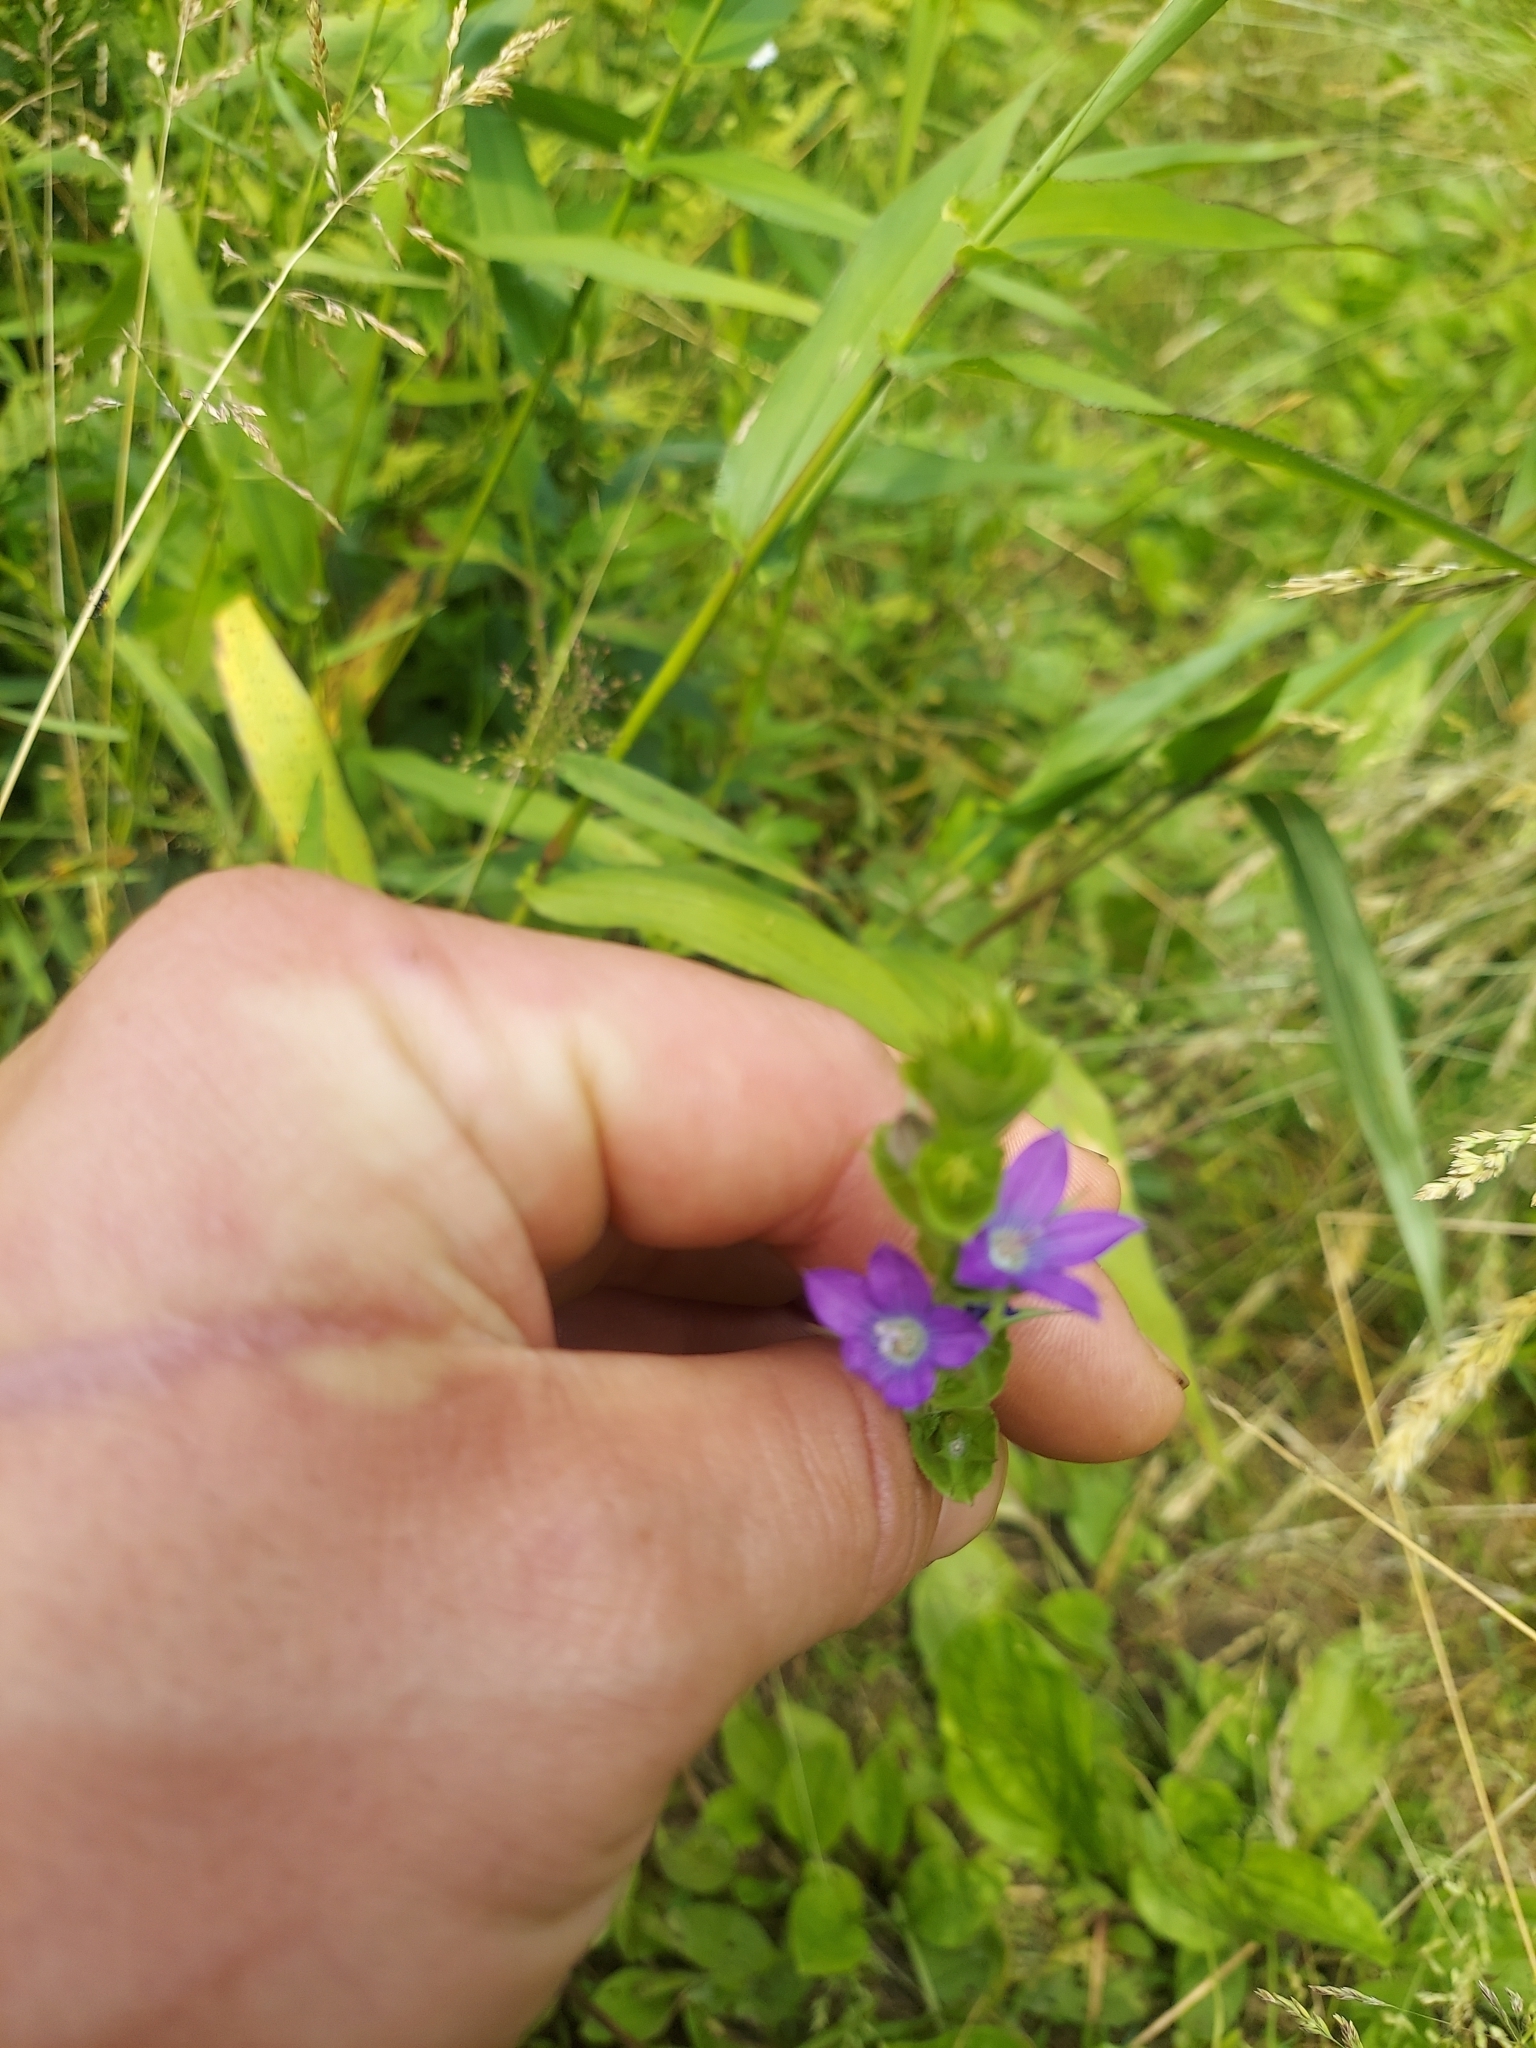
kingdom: Plantae
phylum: Tracheophyta
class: Magnoliopsida
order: Asterales
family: Campanulaceae
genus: Triodanis
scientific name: Triodanis perfoliata
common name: Clasping venus' looking-glass
